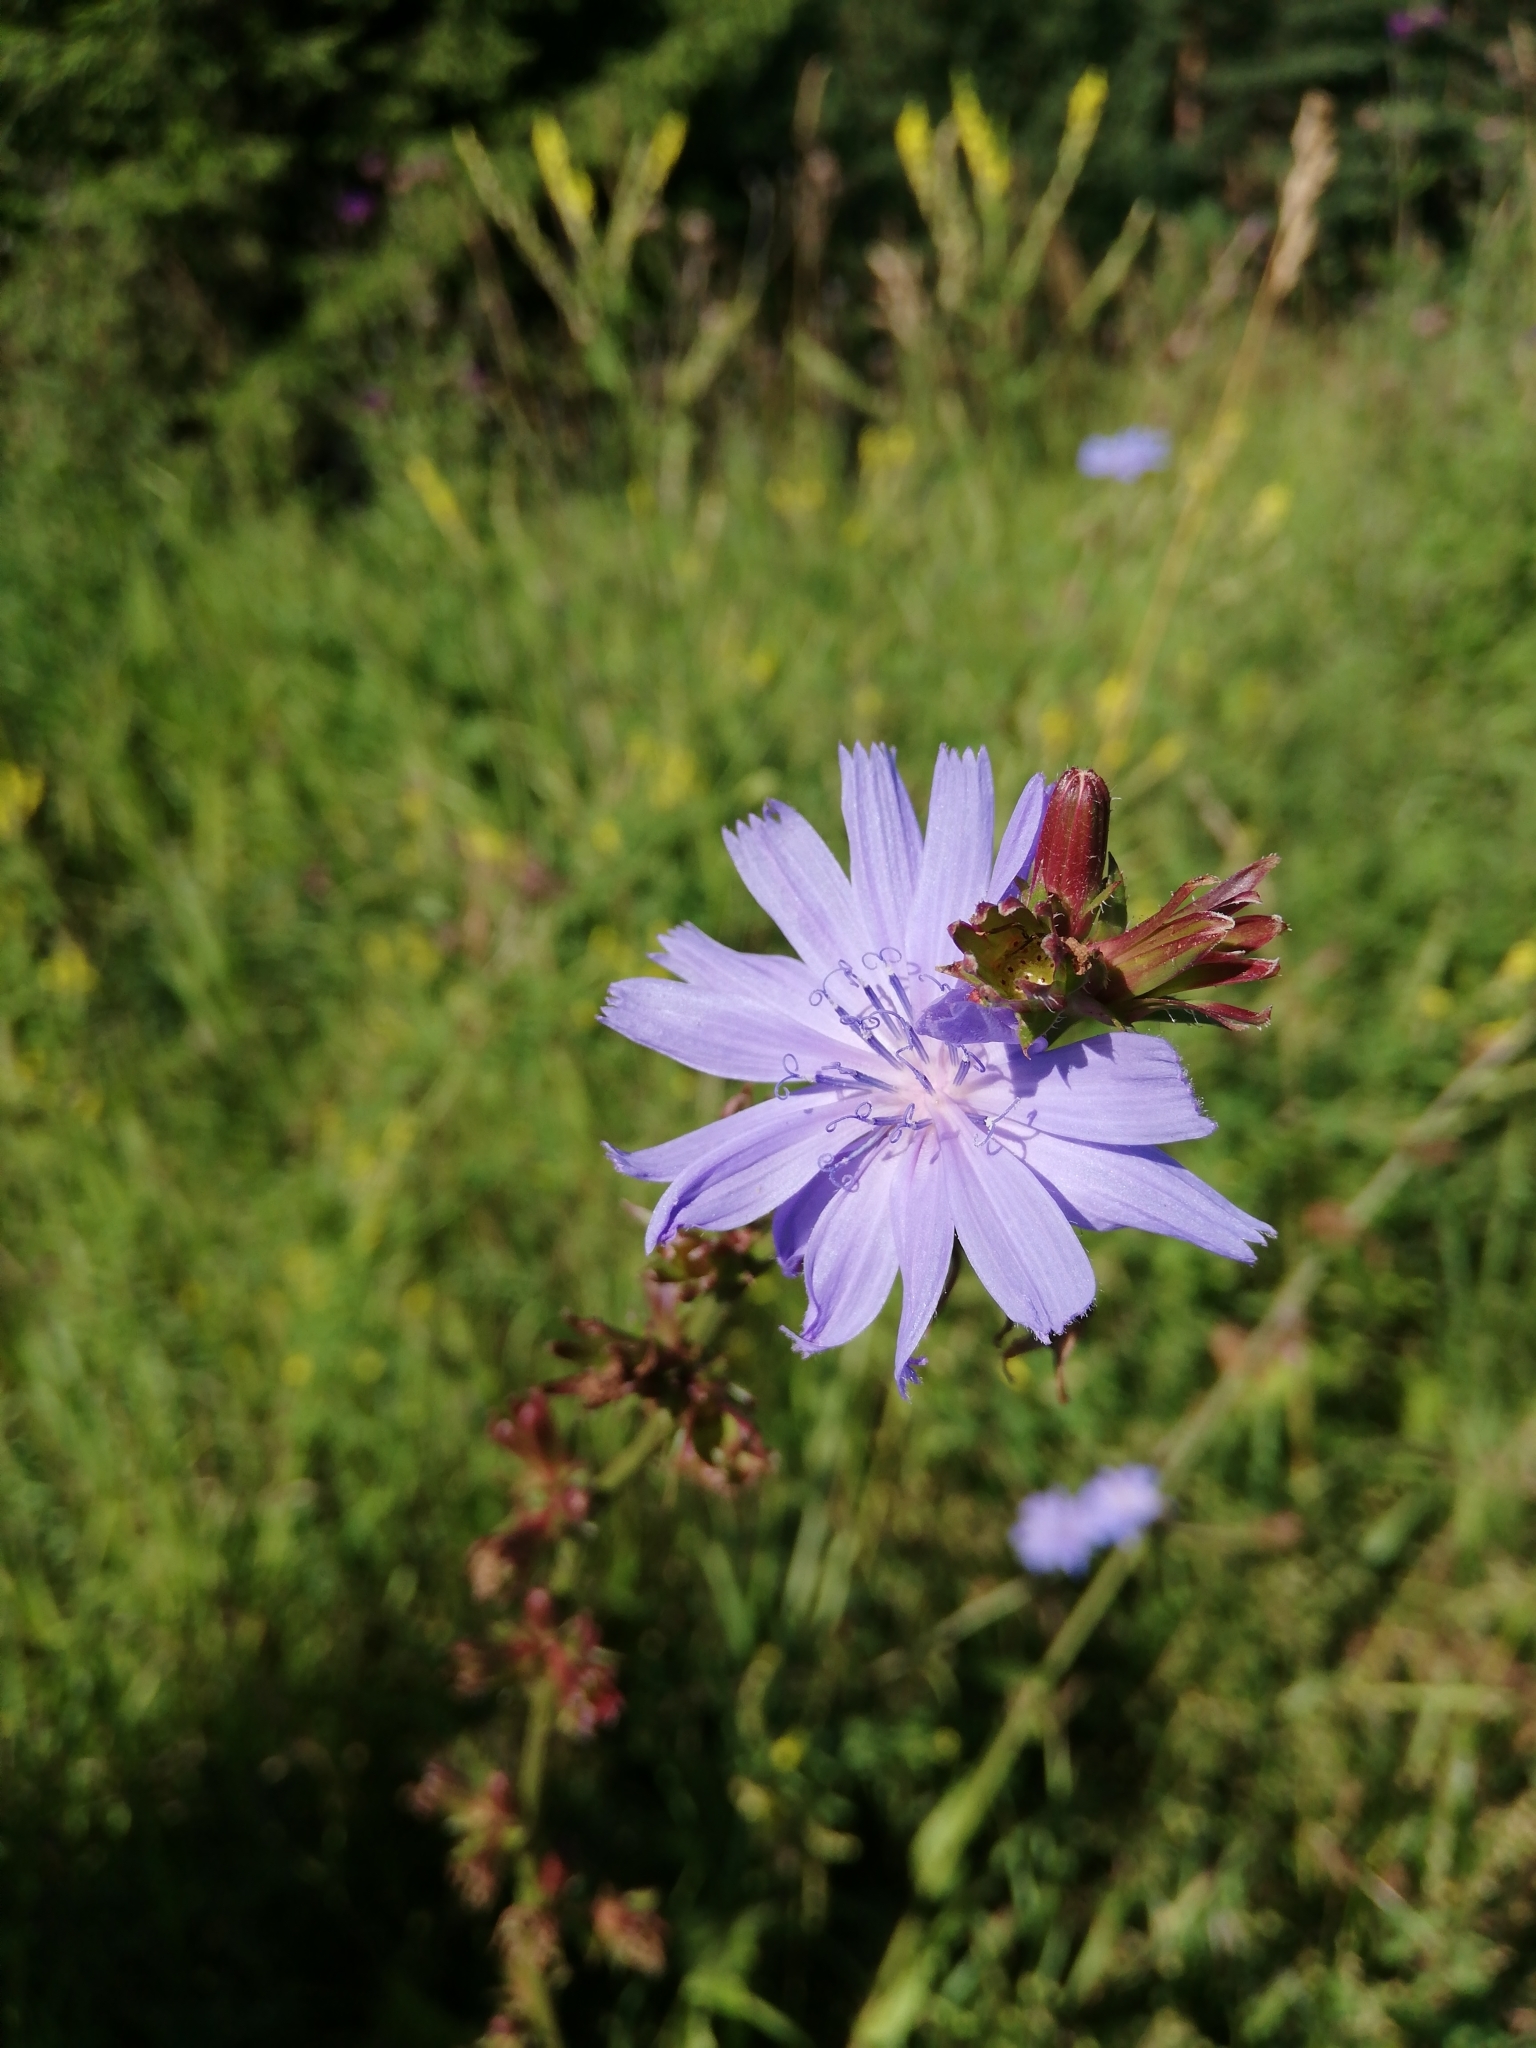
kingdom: Plantae
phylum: Tracheophyta
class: Magnoliopsida
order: Asterales
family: Asteraceae
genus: Cichorium
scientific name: Cichorium intybus
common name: Chicory
